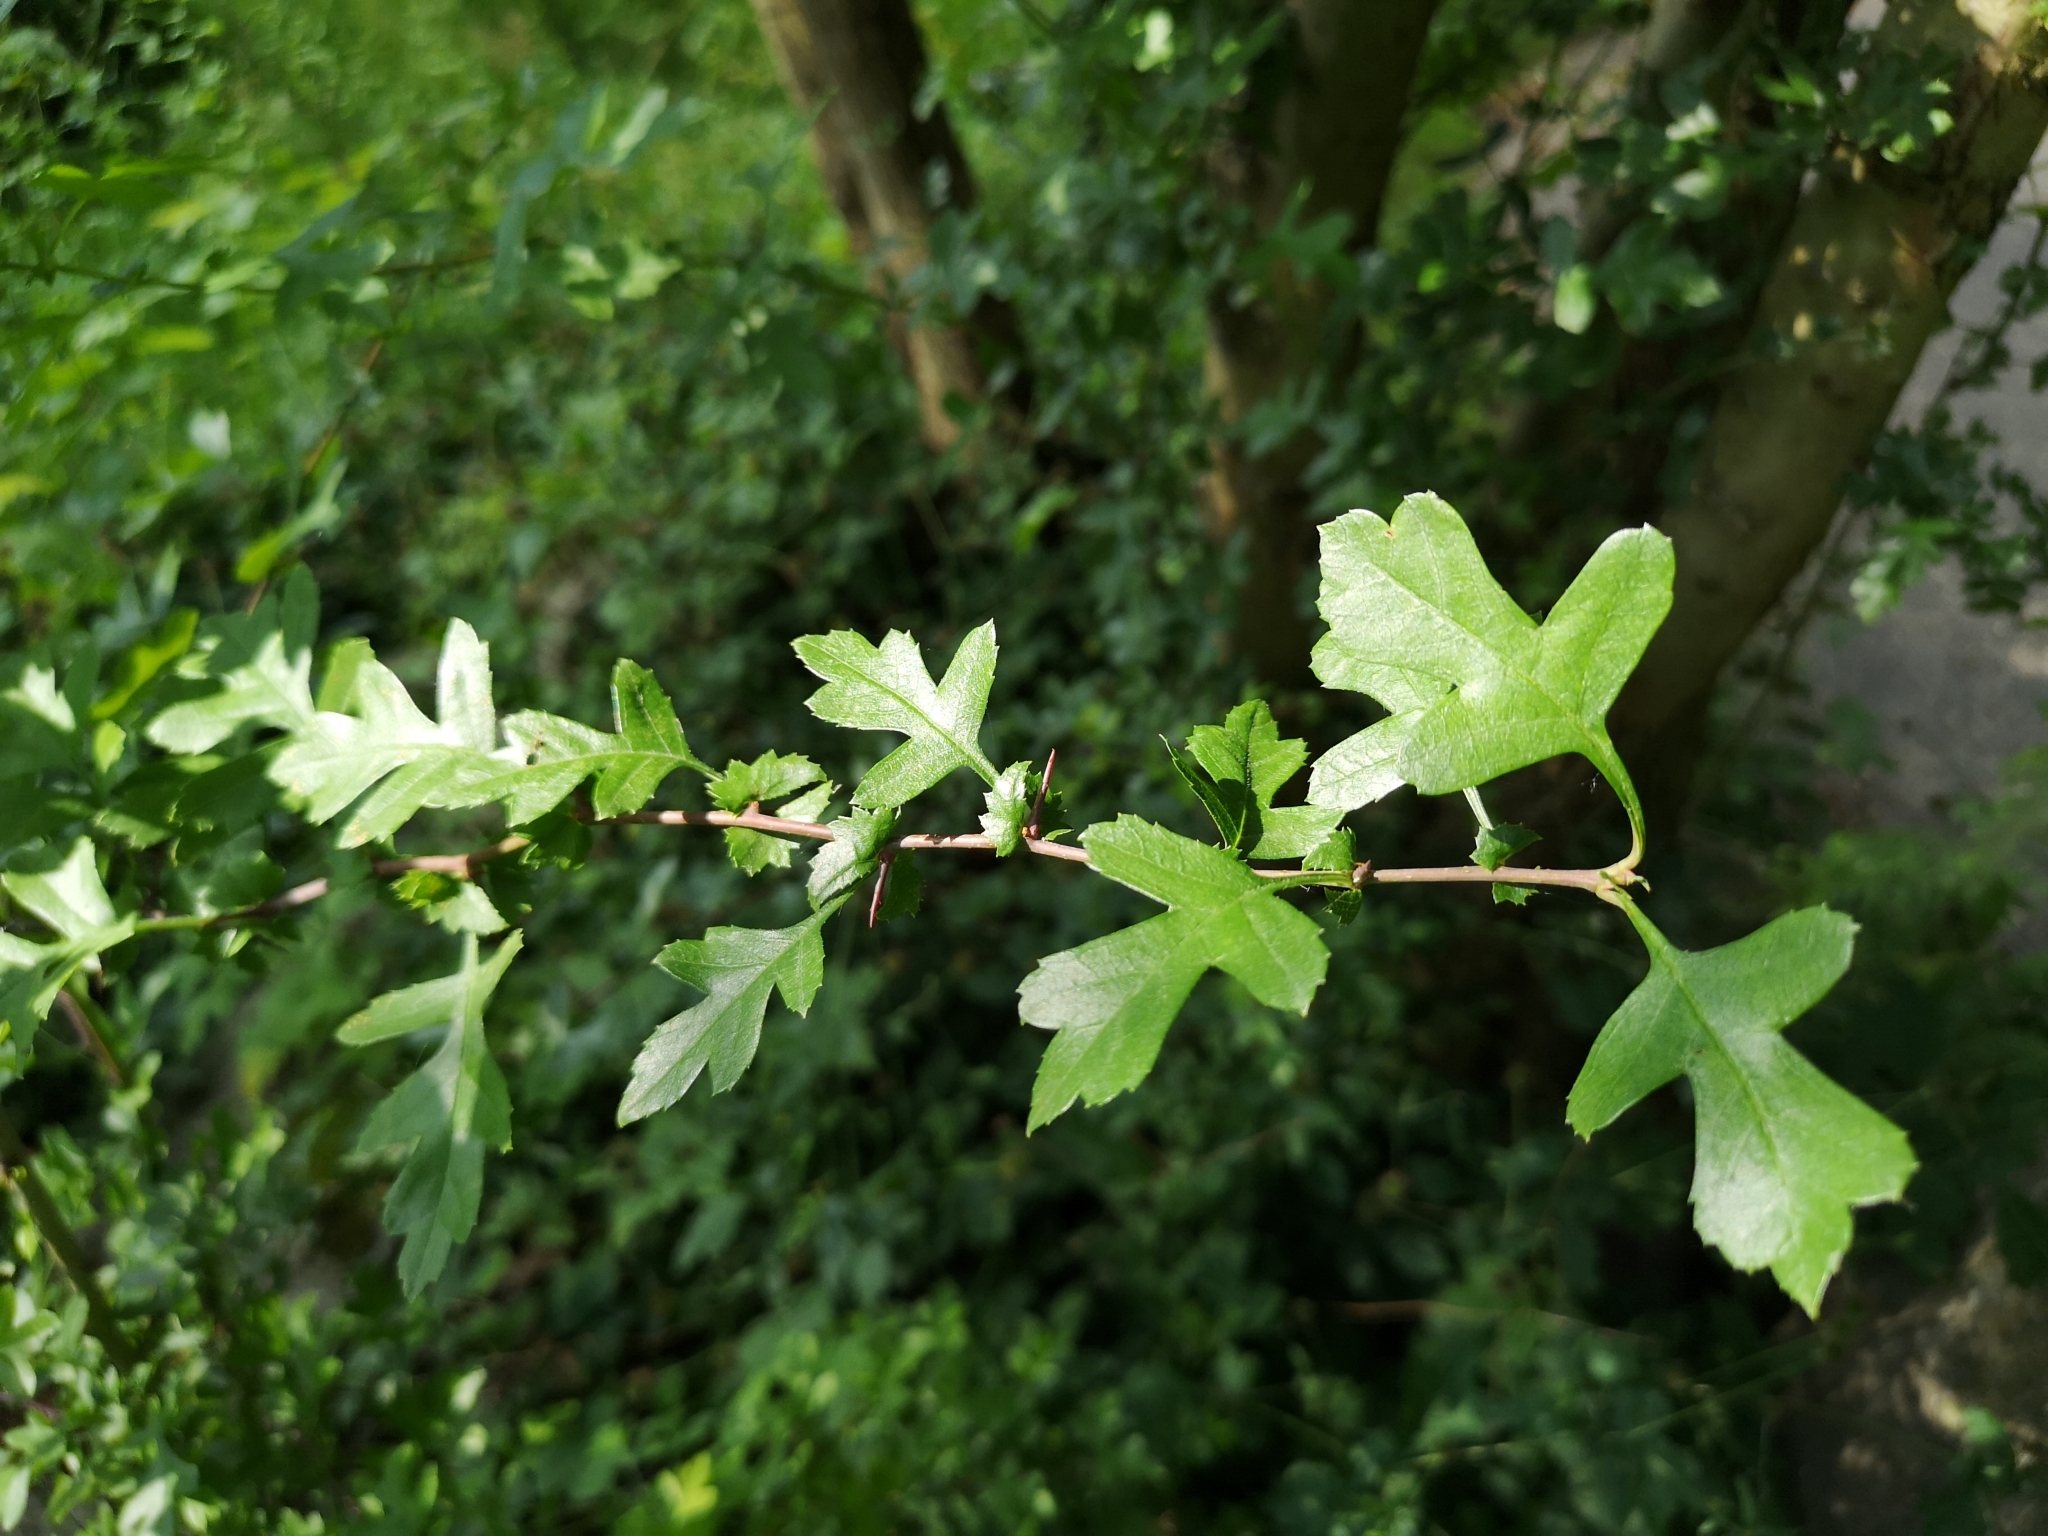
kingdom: Plantae
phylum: Tracheophyta
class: Magnoliopsida
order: Rosales
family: Rosaceae
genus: Crataegus
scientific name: Crataegus monogyna
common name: Hawthorn
